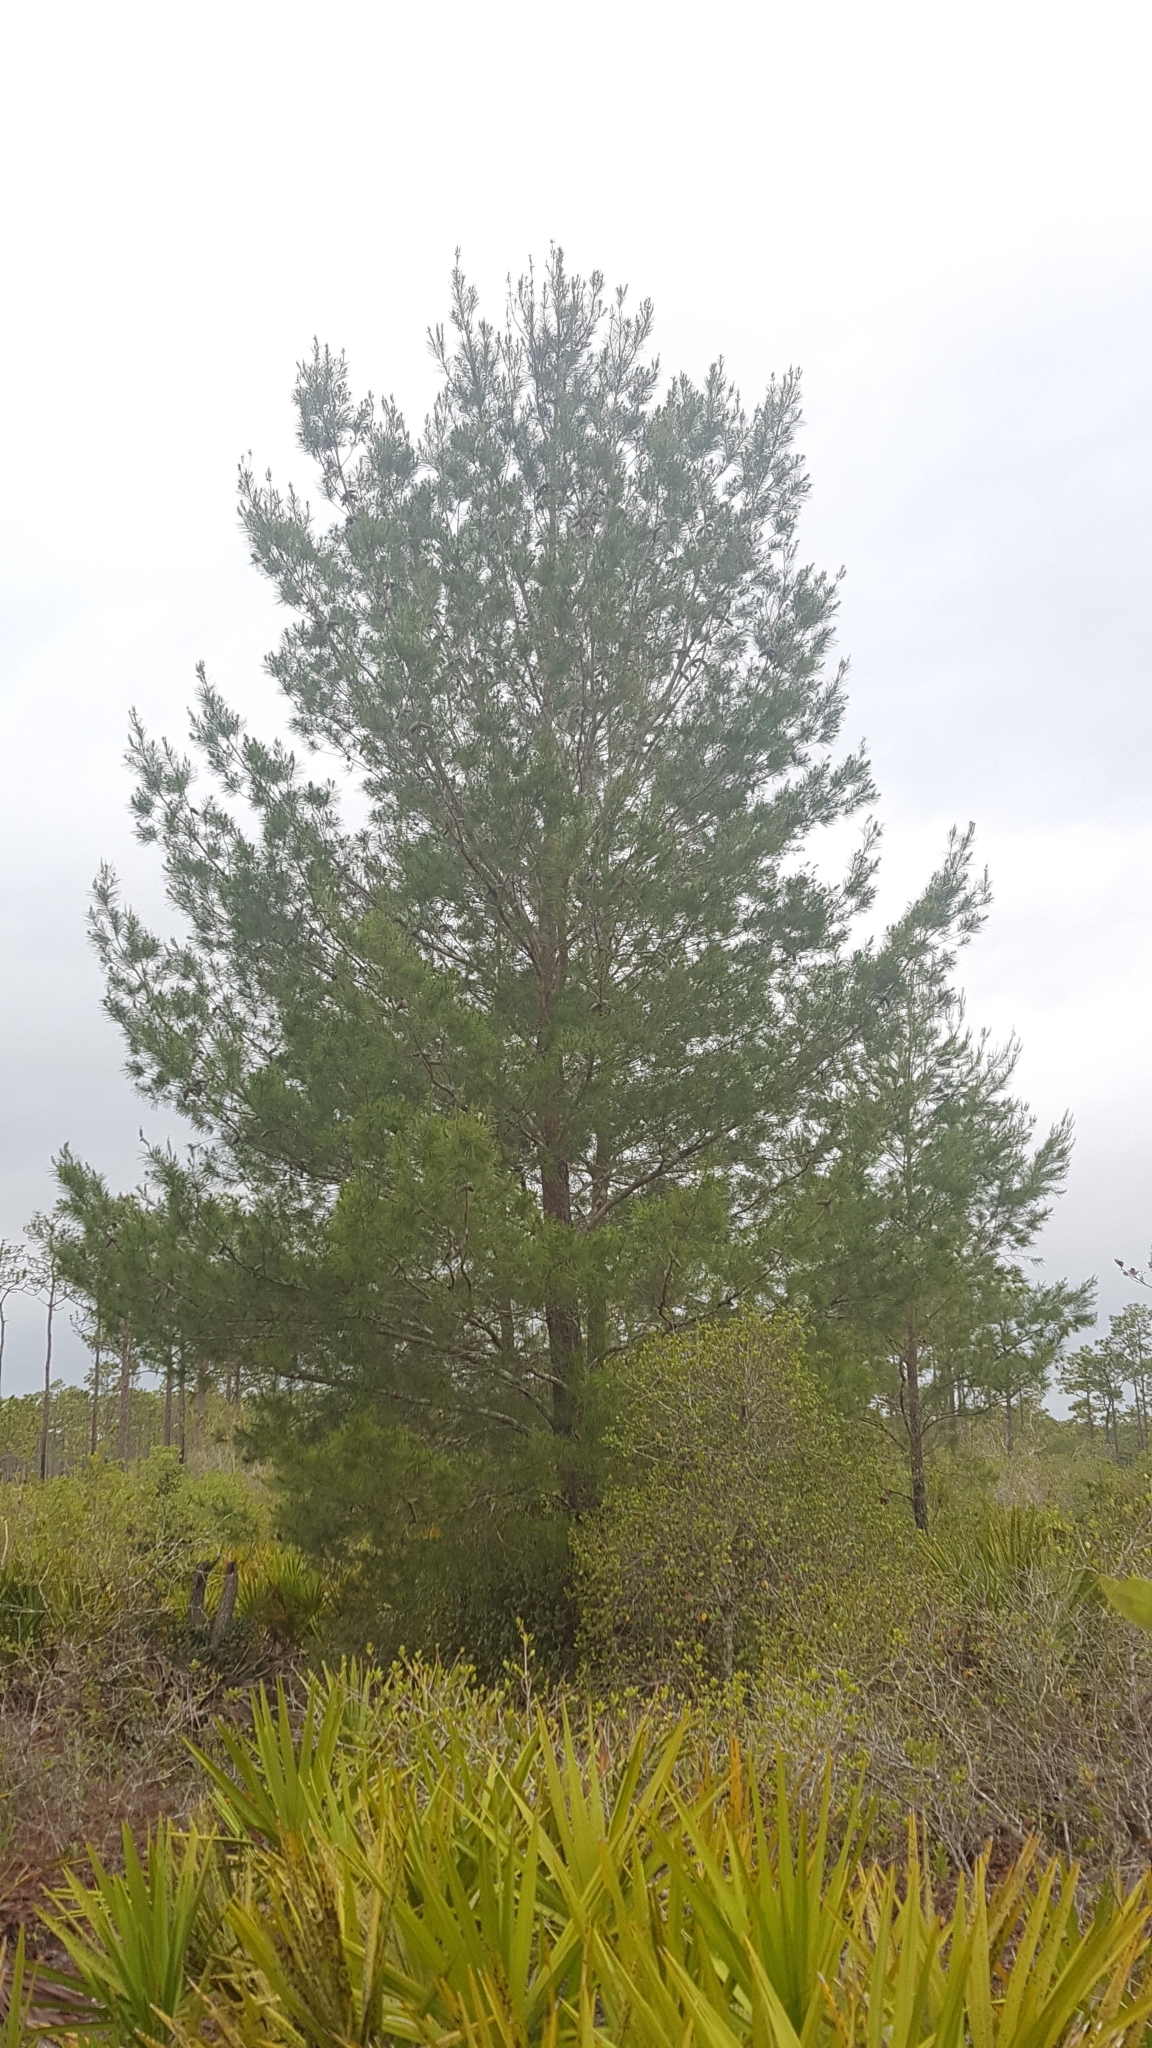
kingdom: Plantae
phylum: Tracheophyta
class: Pinopsida
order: Pinales
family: Pinaceae
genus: Pinus
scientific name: Pinus clausa
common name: Sand pine
